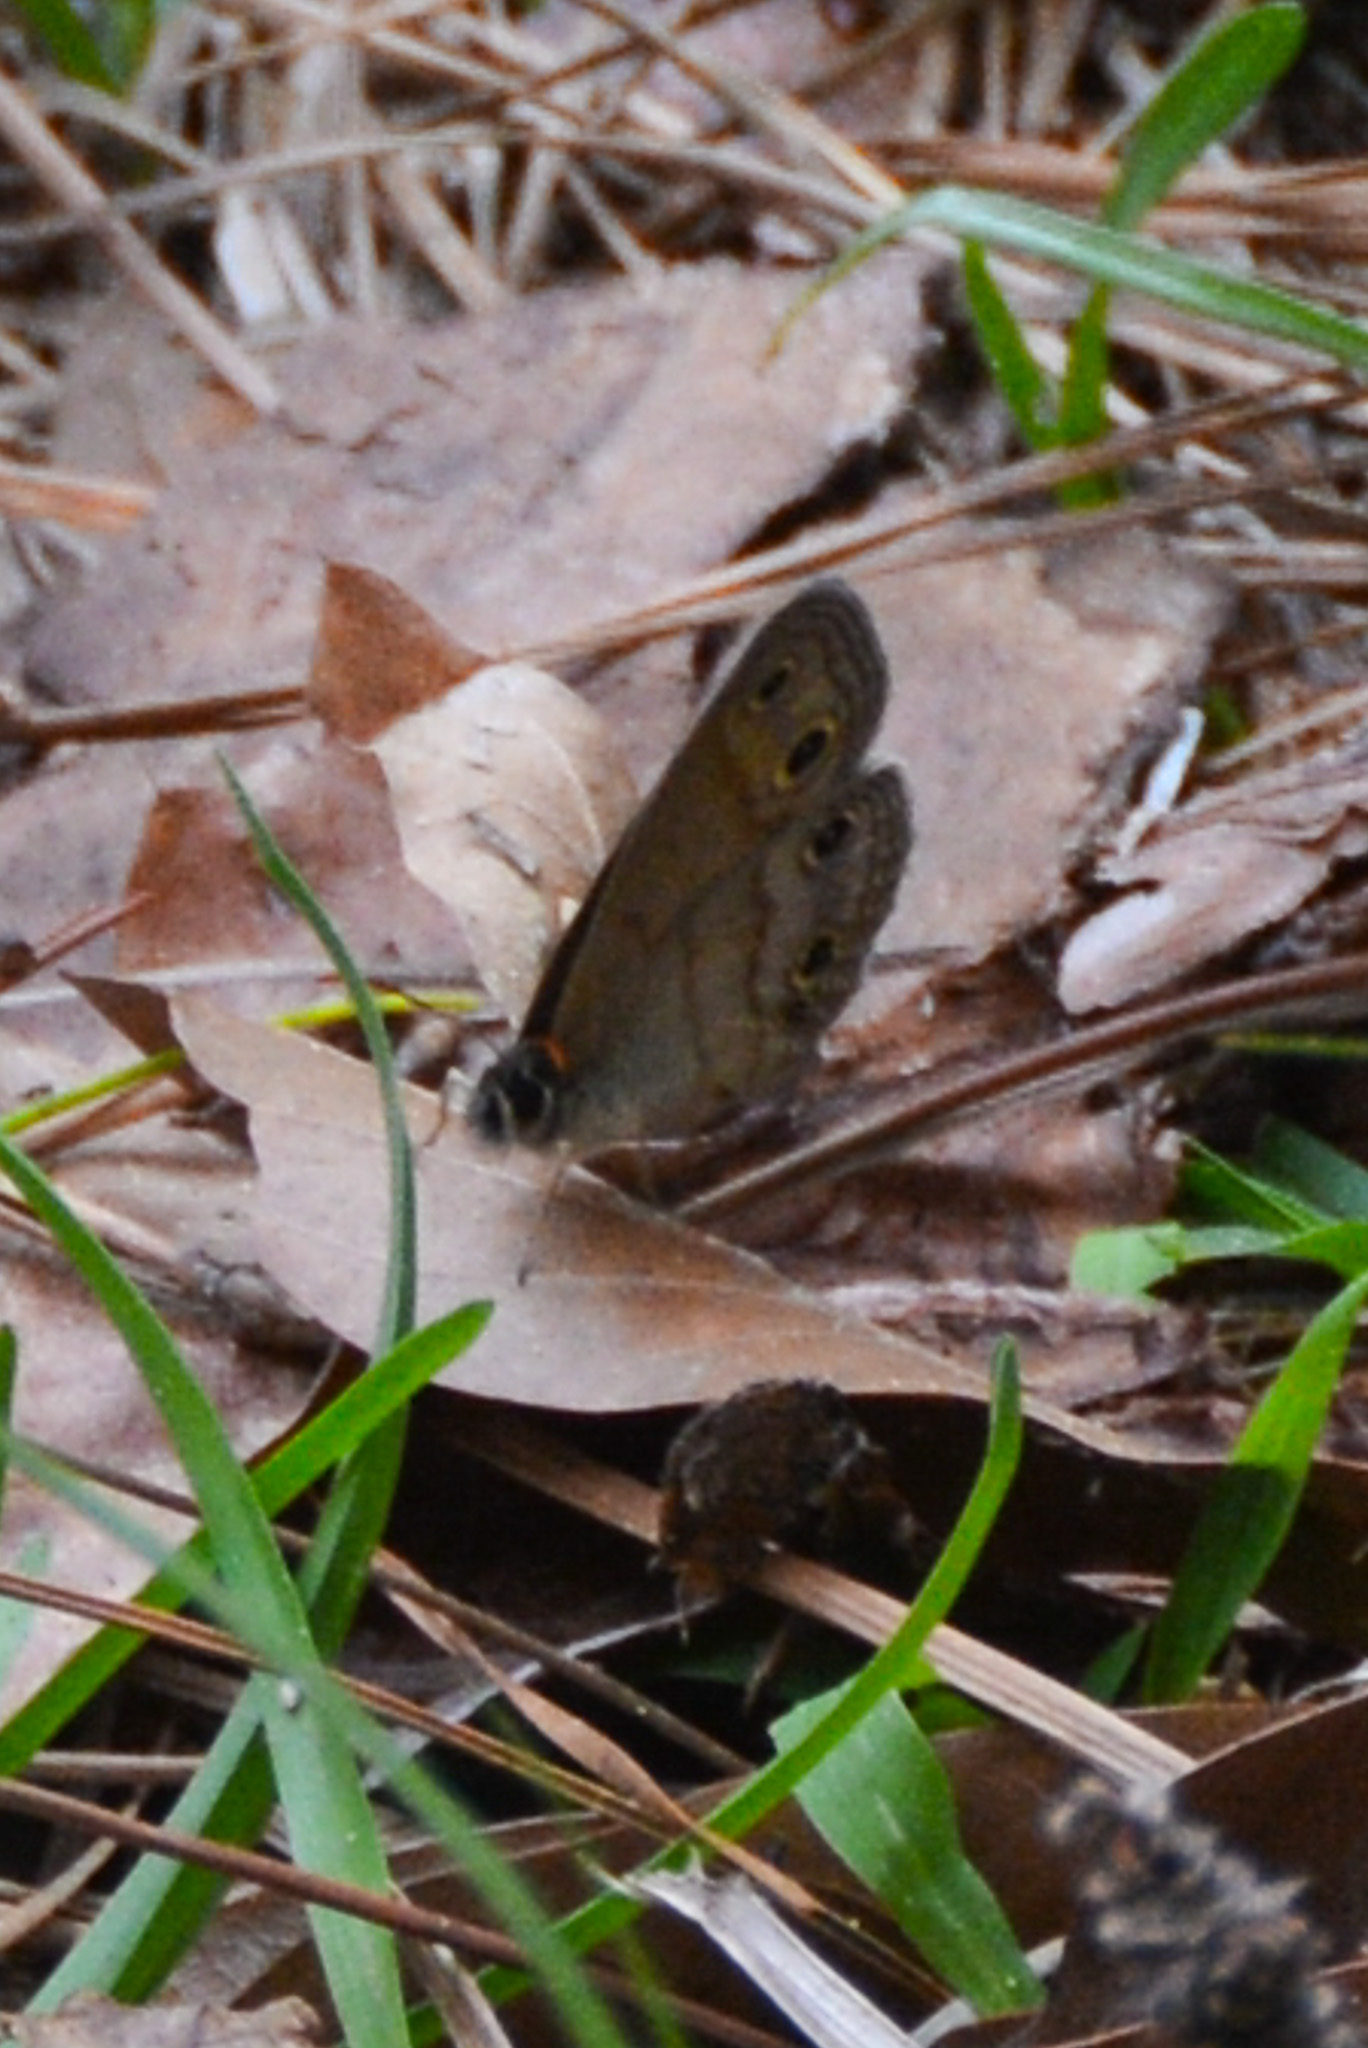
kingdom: Animalia
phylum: Arthropoda
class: Insecta
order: Lepidoptera
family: Nymphalidae
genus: Euptychia
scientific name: Euptychia cymela
